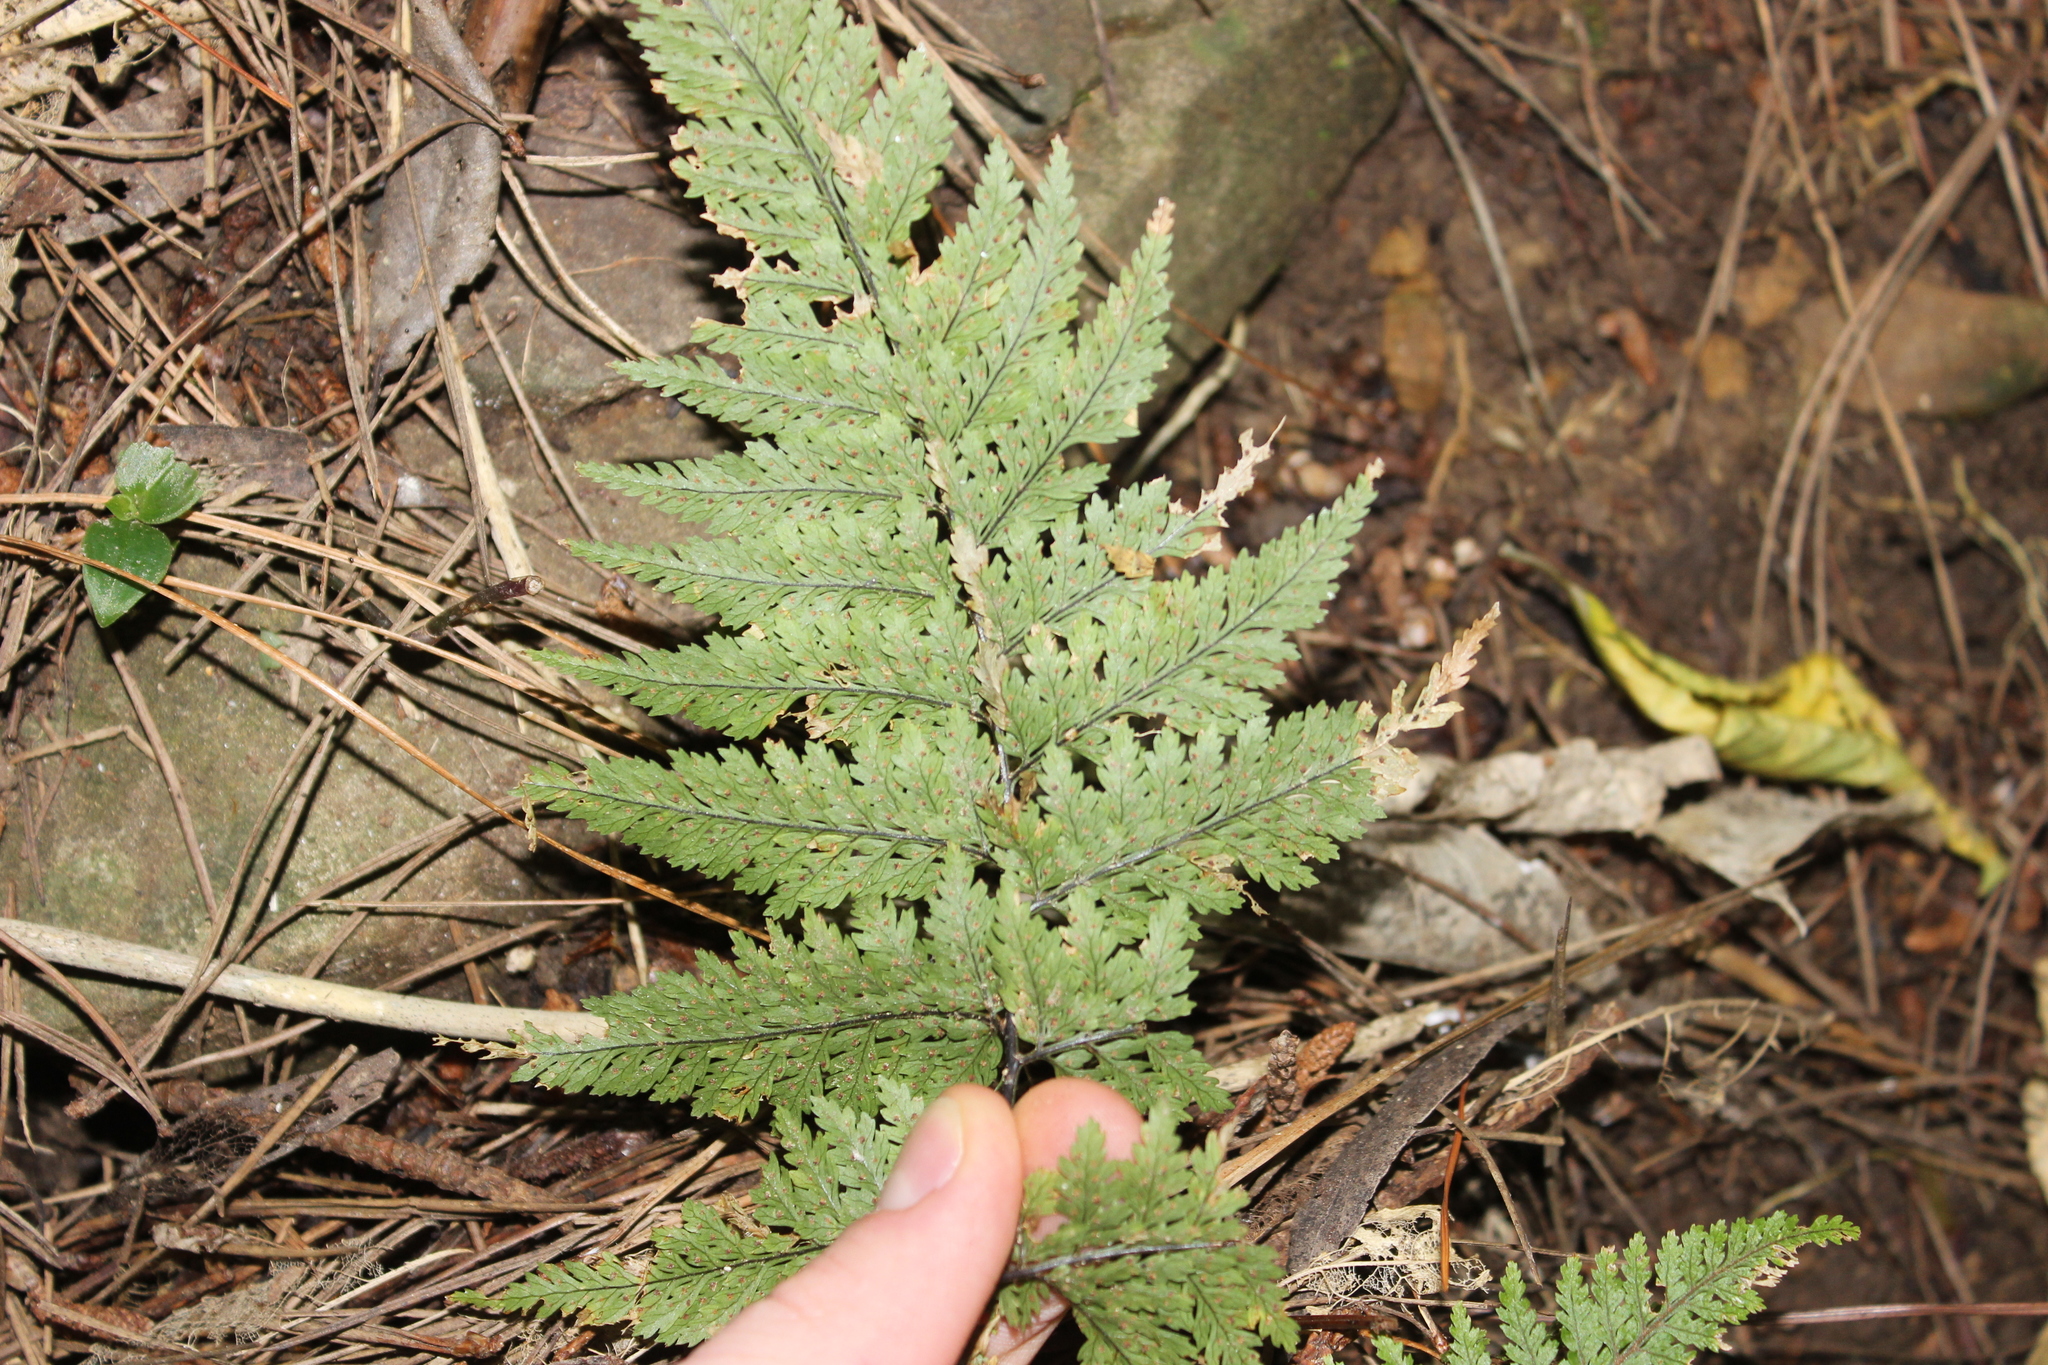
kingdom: Plantae
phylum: Tracheophyta
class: Polypodiopsida
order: Polypodiales
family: Dryopteridaceae
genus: Parapolystichum
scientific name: Parapolystichum glabellum
